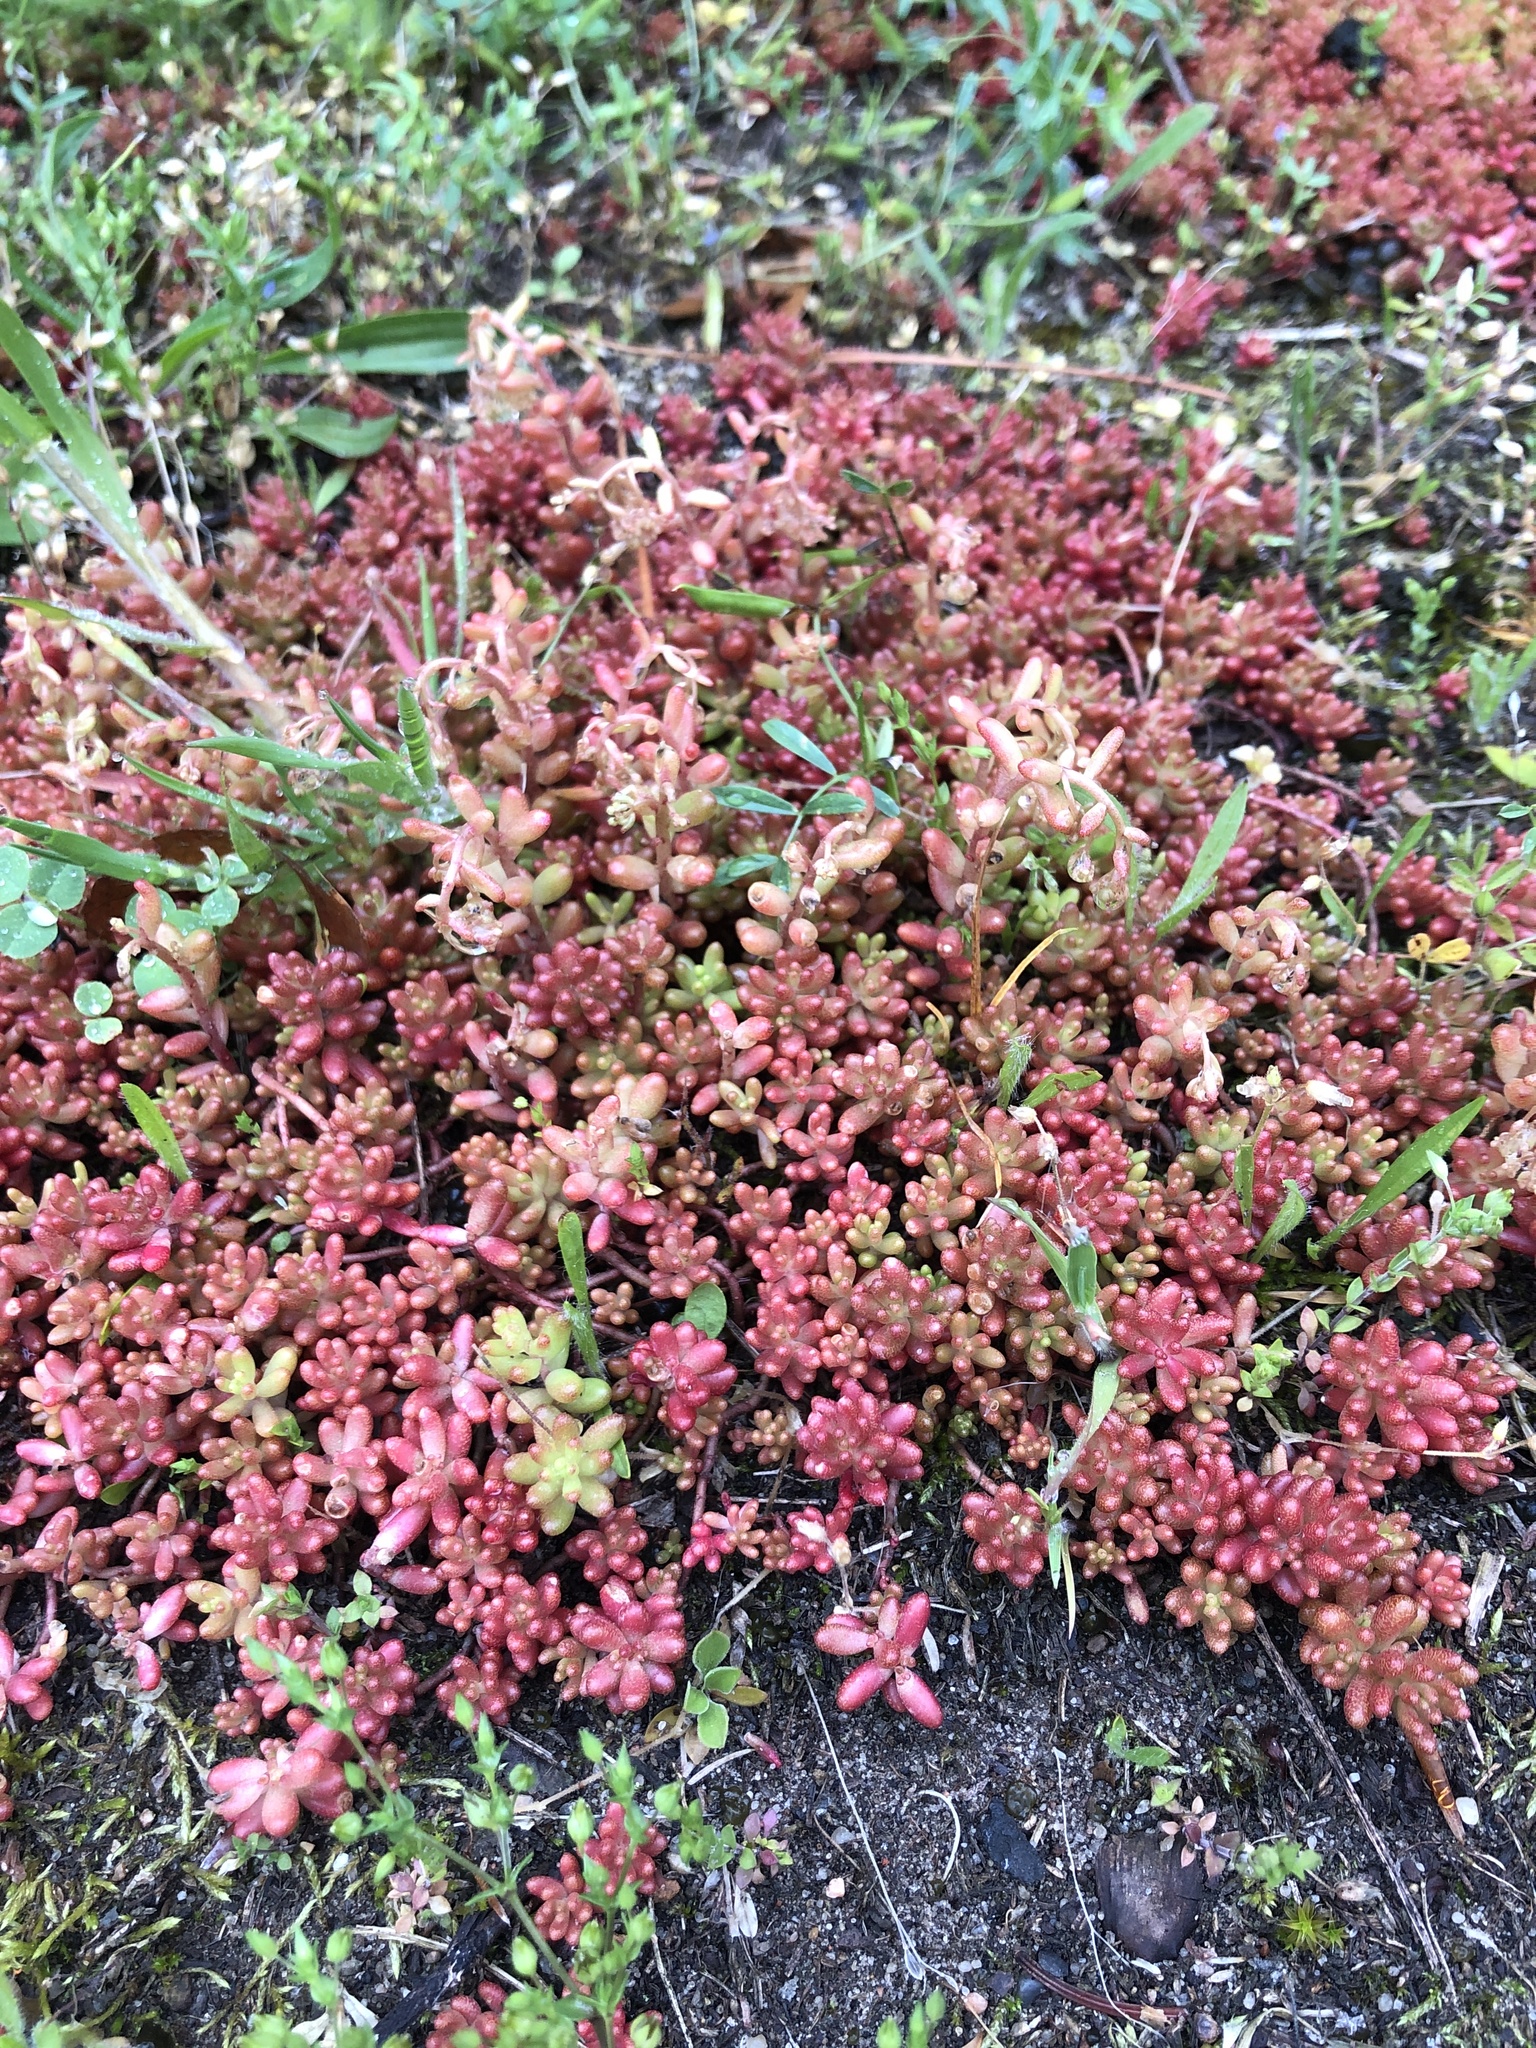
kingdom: Plantae
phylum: Tracheophyta
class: Magnoliopsida
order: Saxifragales
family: Crassulaceae
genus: Sedum
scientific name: Sedum album
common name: White stonecrop
